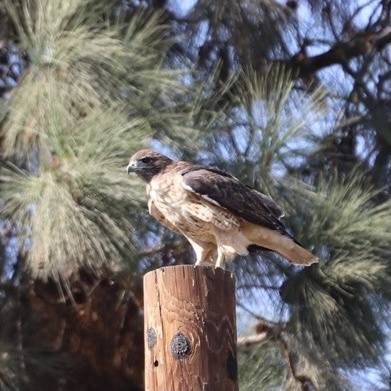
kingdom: Animalia
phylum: Chordata
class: Aves
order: Accipitriformes
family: Accipitridae
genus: Buteo
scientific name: Buteo jamaicensis
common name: Red-tailed hawk
